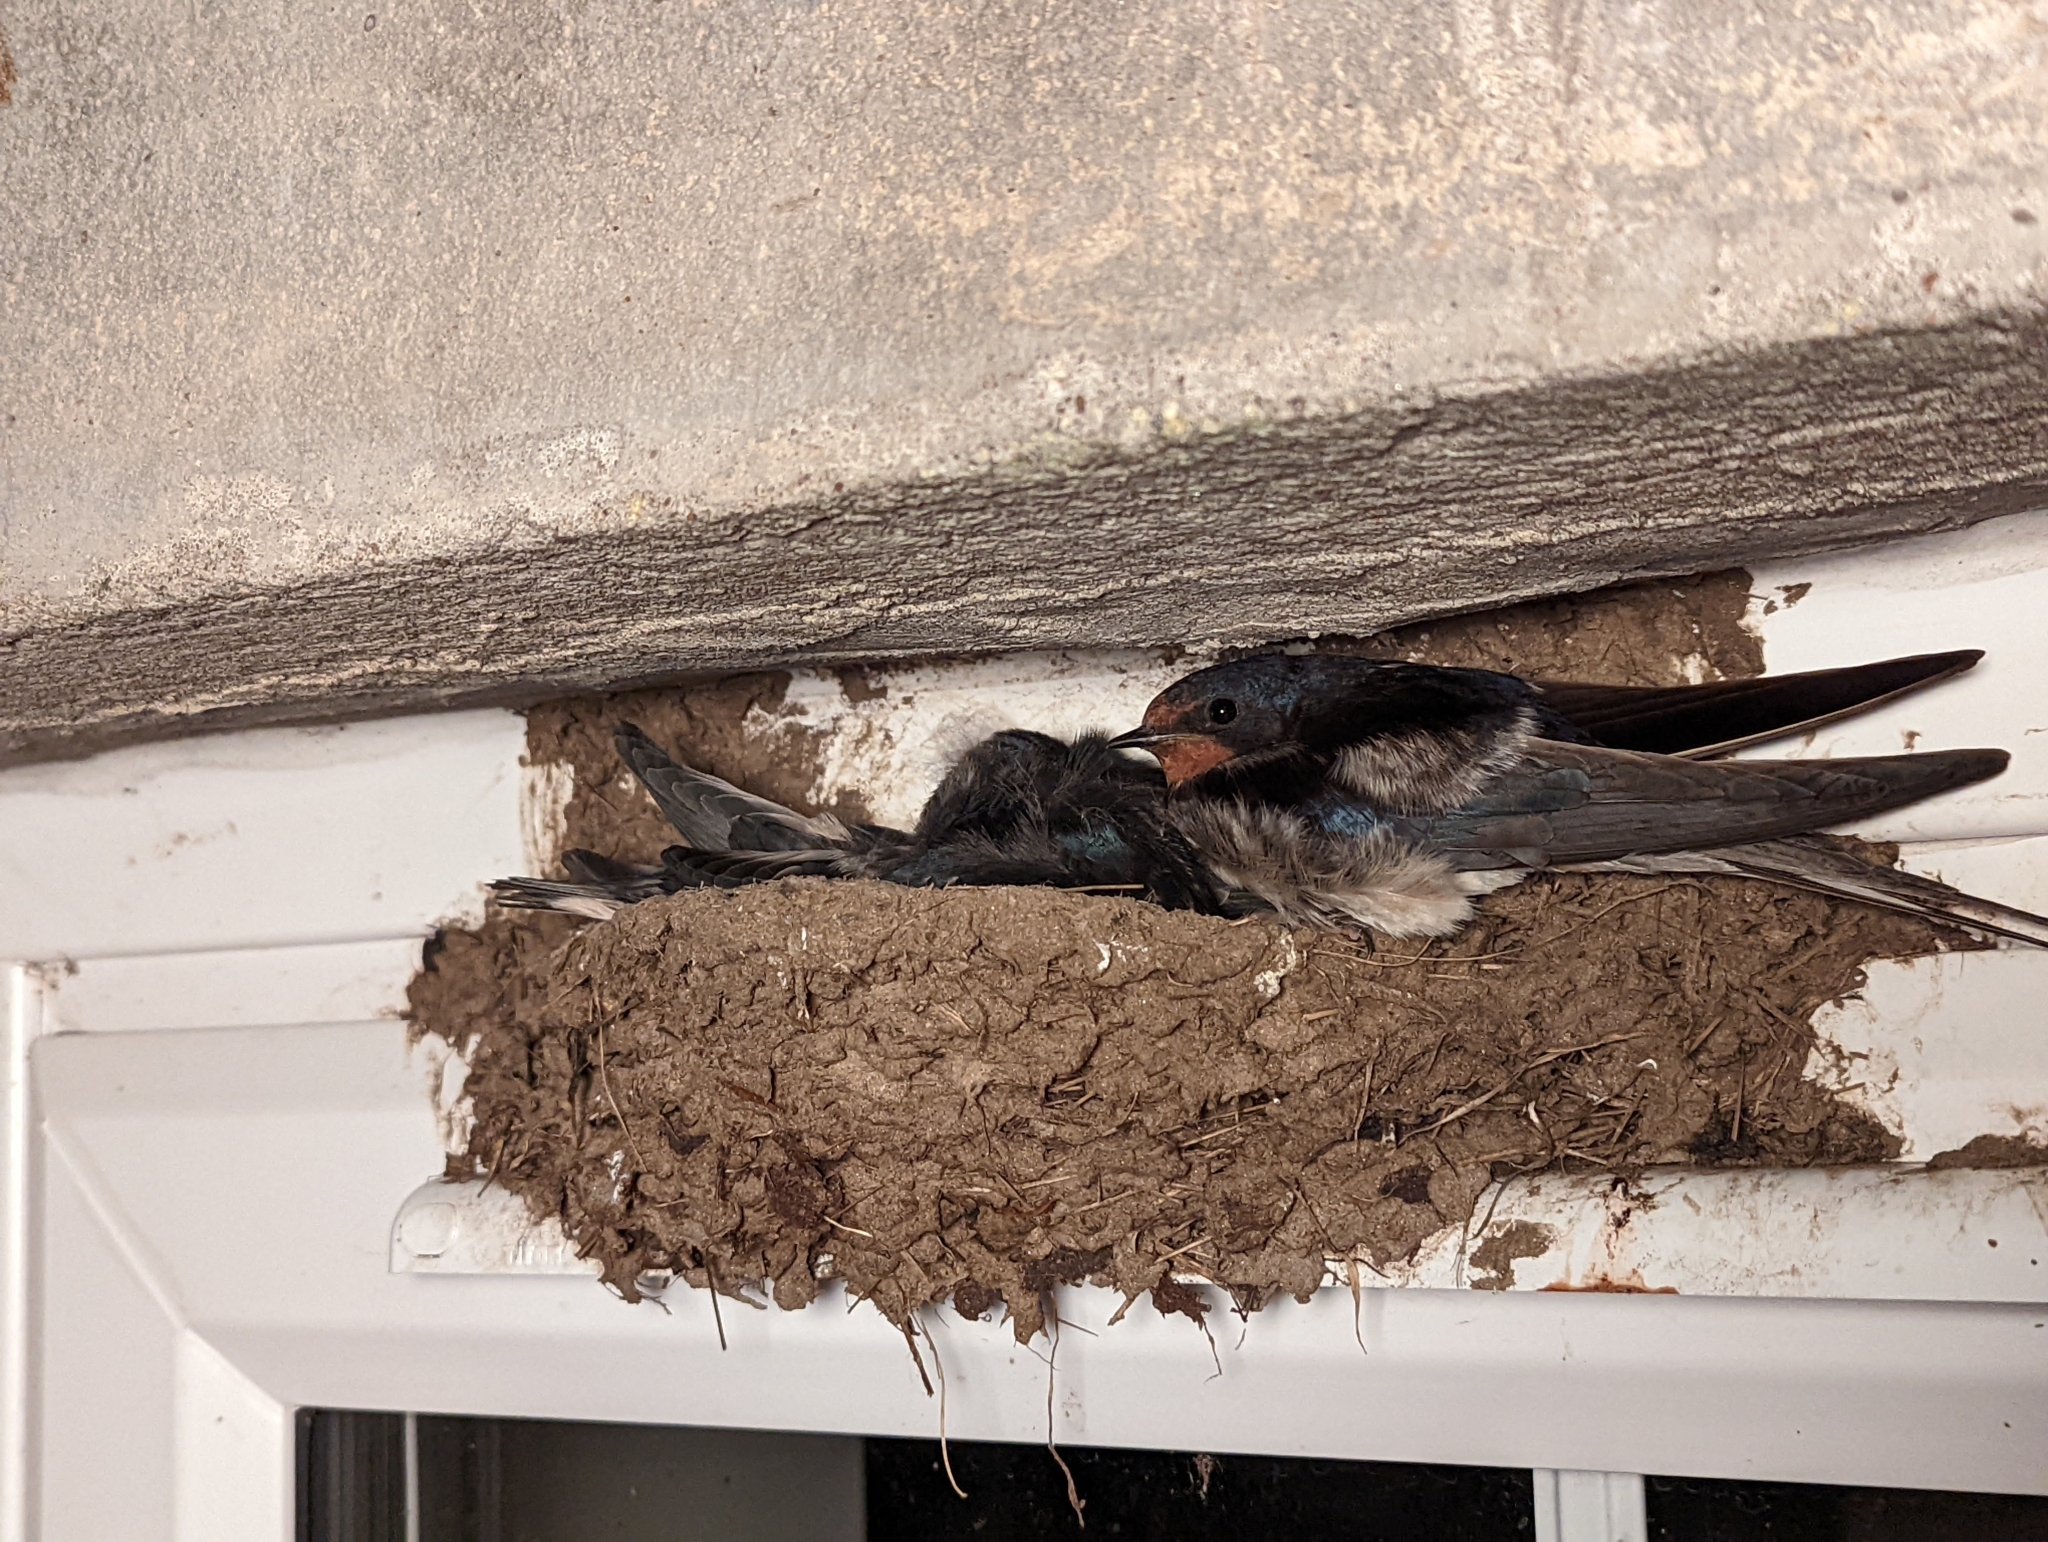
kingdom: Animalia
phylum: Chordata
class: Aves
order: Passeriformes
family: Hirundinidae
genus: Hirundo
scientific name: Hirundo rustica
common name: Barn swallow
